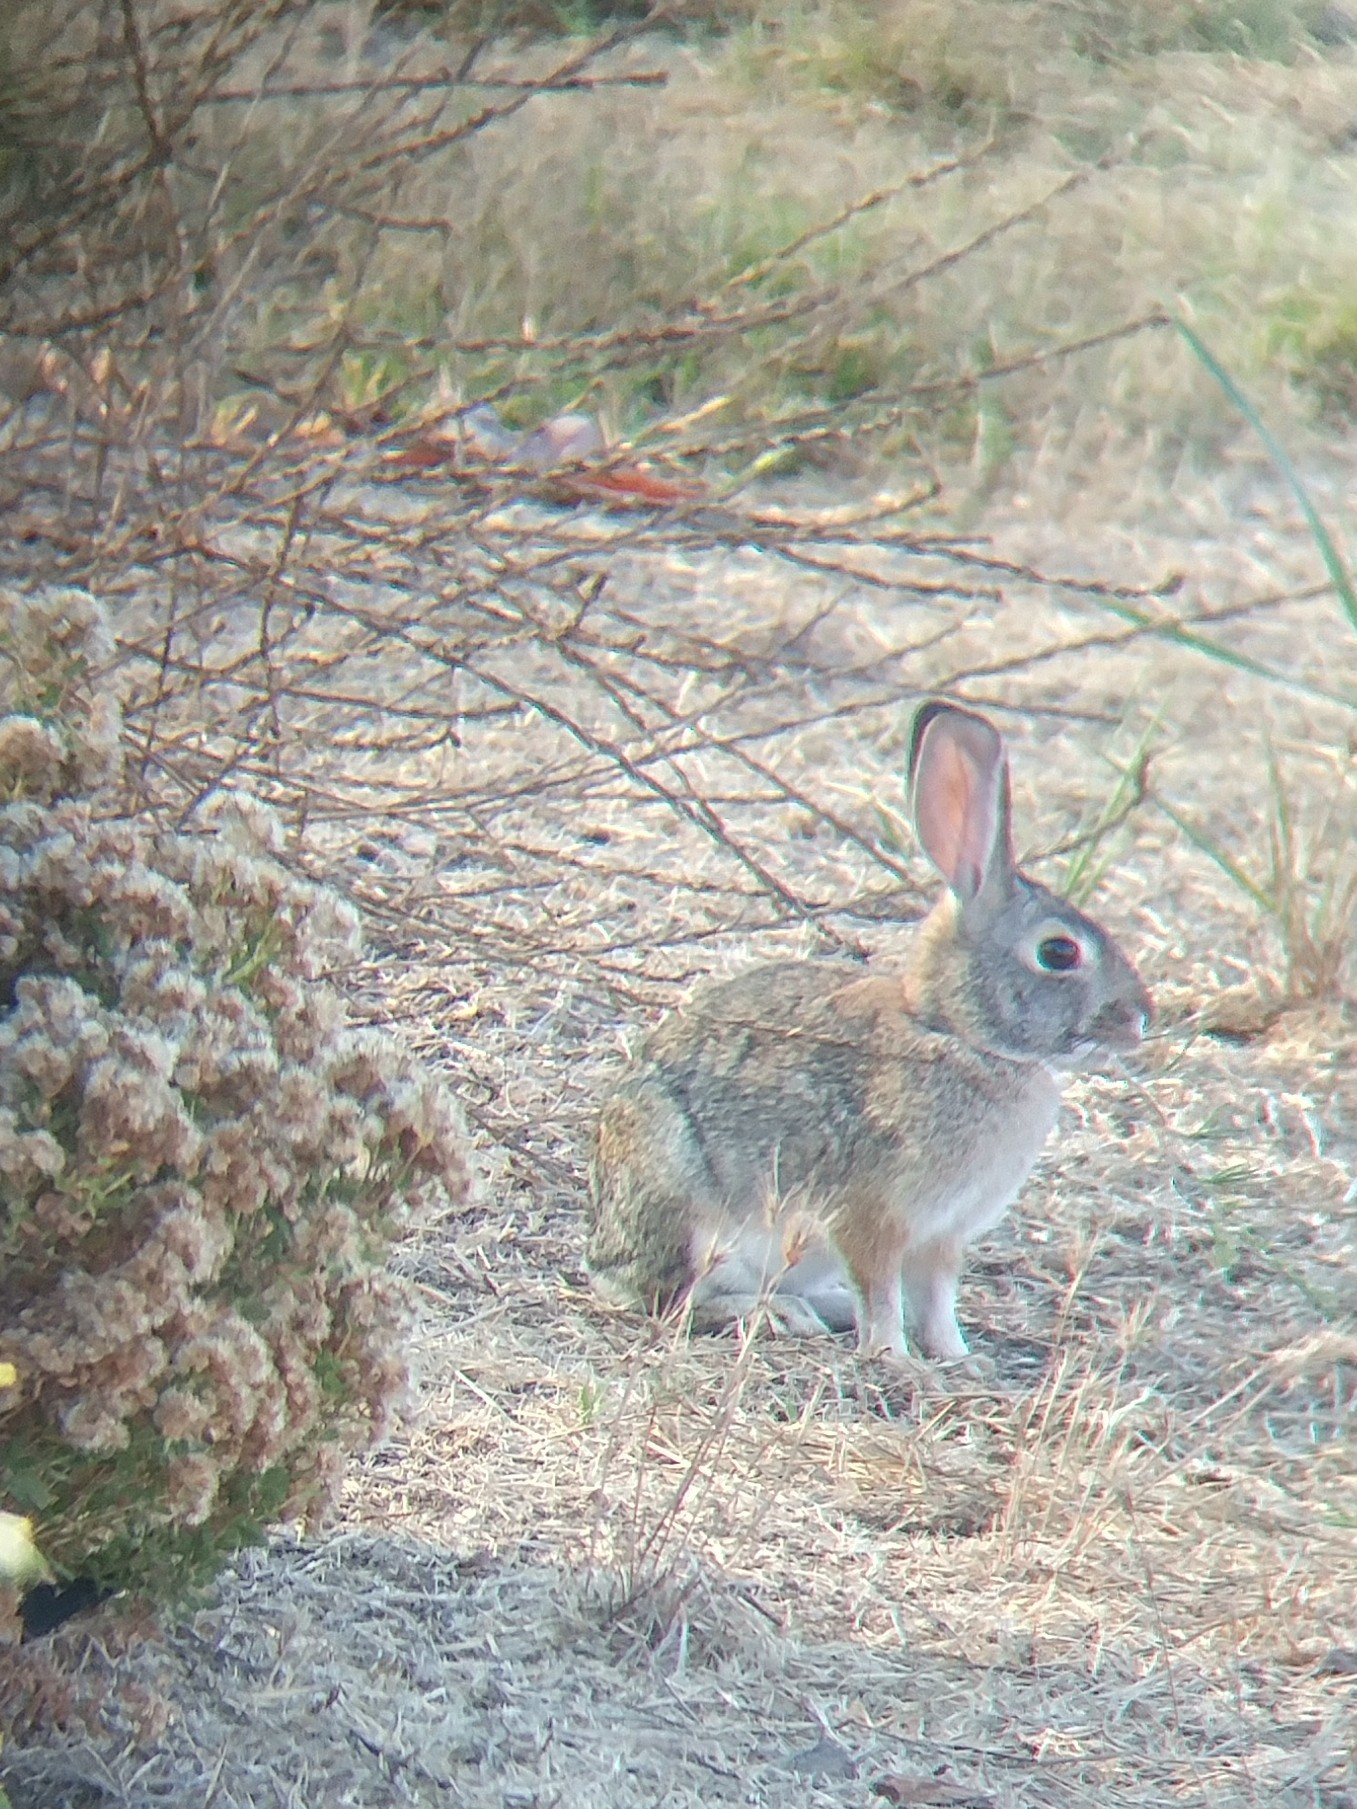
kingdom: Animalia
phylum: Chordata
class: Mammalia
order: Lagomorpha
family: Leporidae
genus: Sylvilagus
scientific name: Sylvilagus audubonii
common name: Desert cottontail
